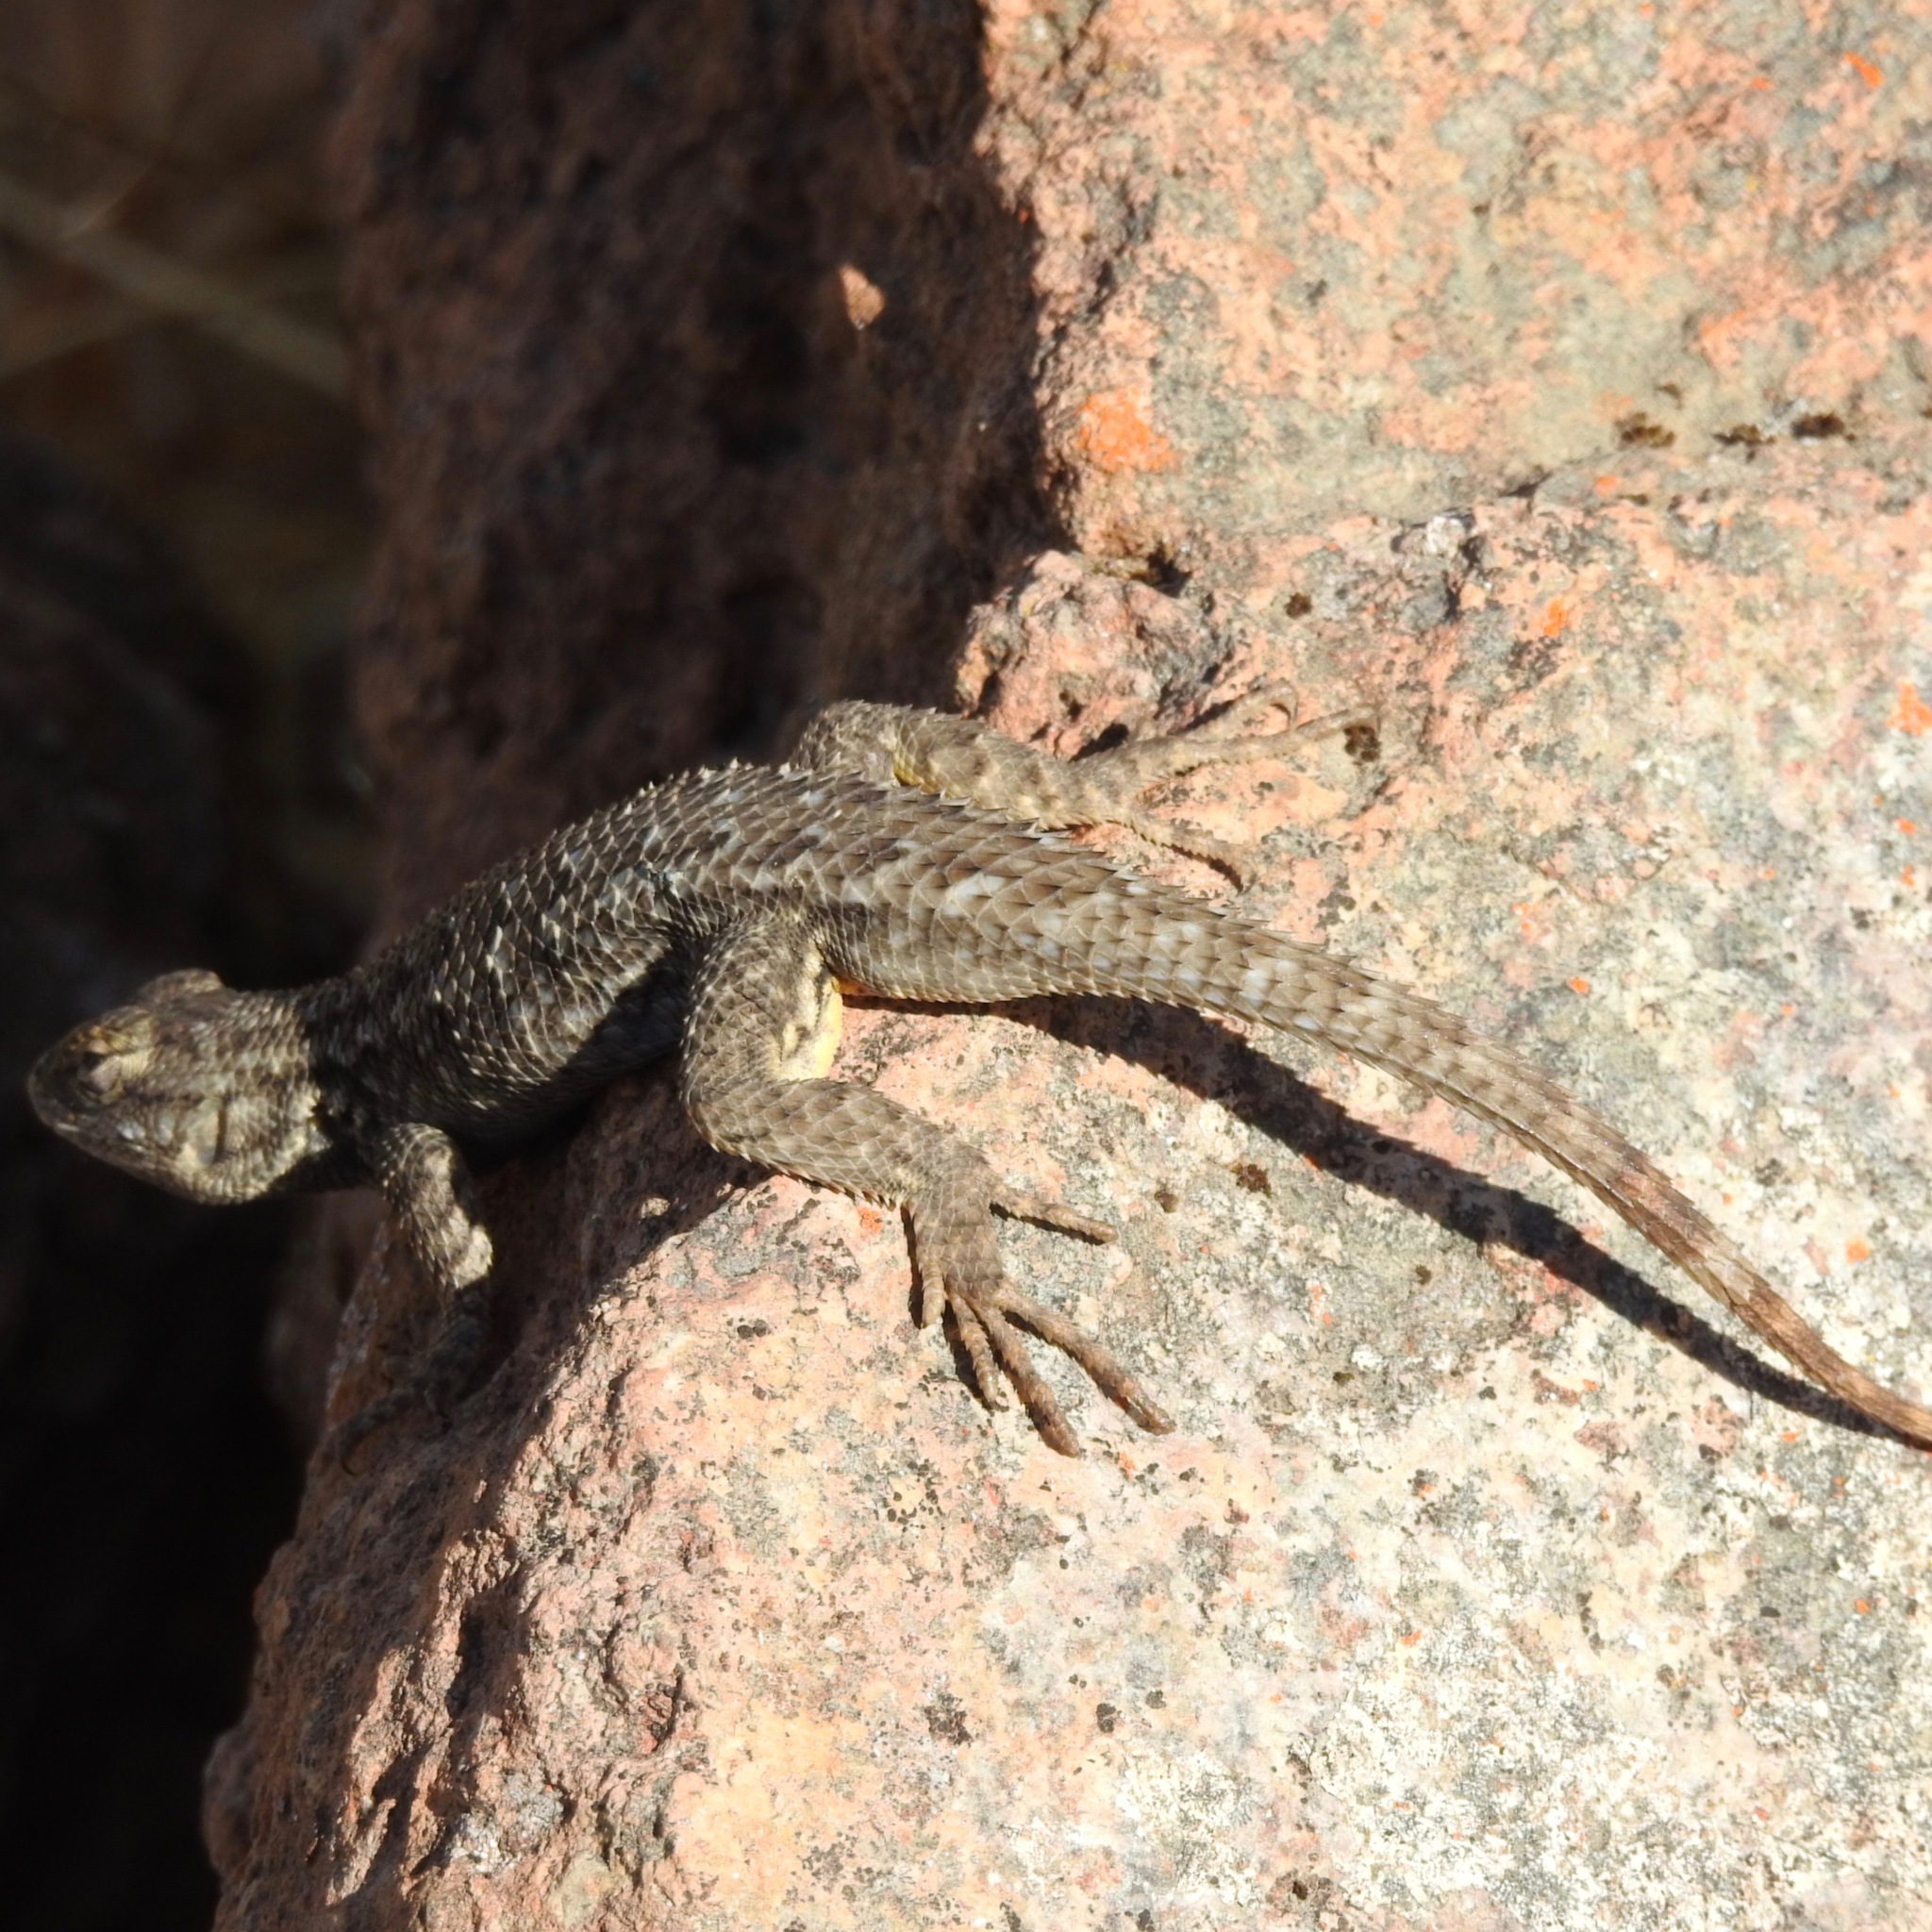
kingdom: Animalia
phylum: Chordata
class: Squamata
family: Phrynosomatidae
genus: Sceloporus
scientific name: Sceloporus occidentalis
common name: Western fence lizard
